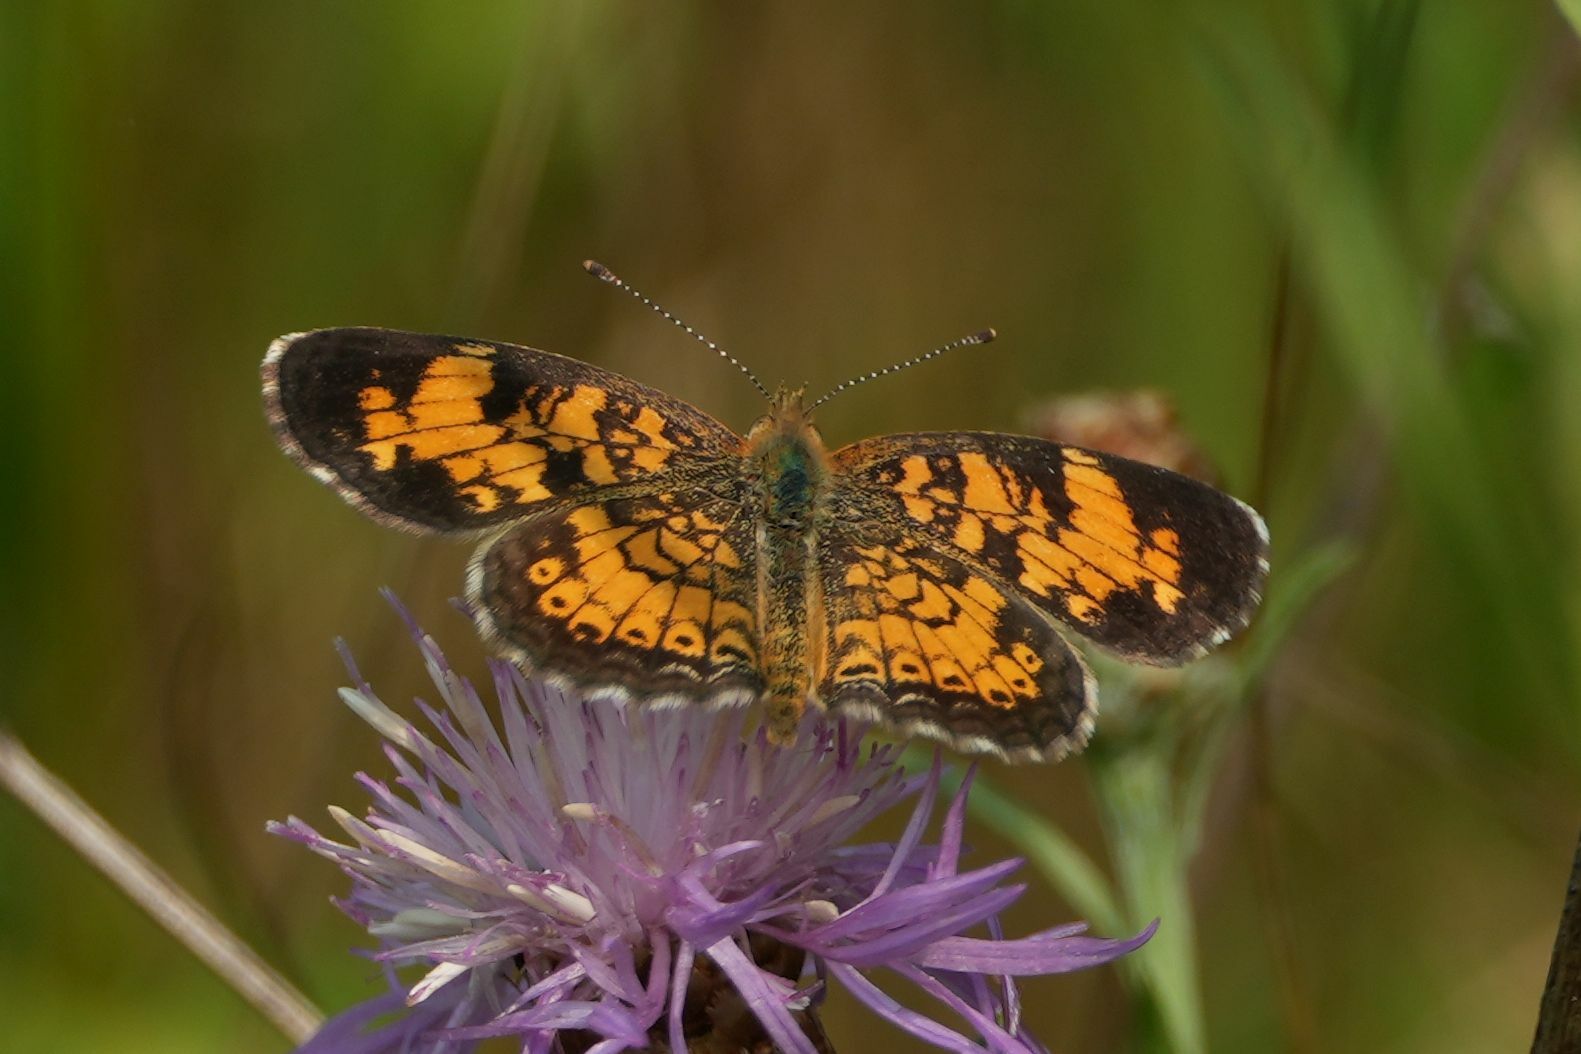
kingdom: Animalia
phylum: Arthropoda
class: Insecta
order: Lepidoptera
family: Nymphalidae
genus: Phyciodes
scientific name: Phyciodes tharos
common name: Pearl crescent
